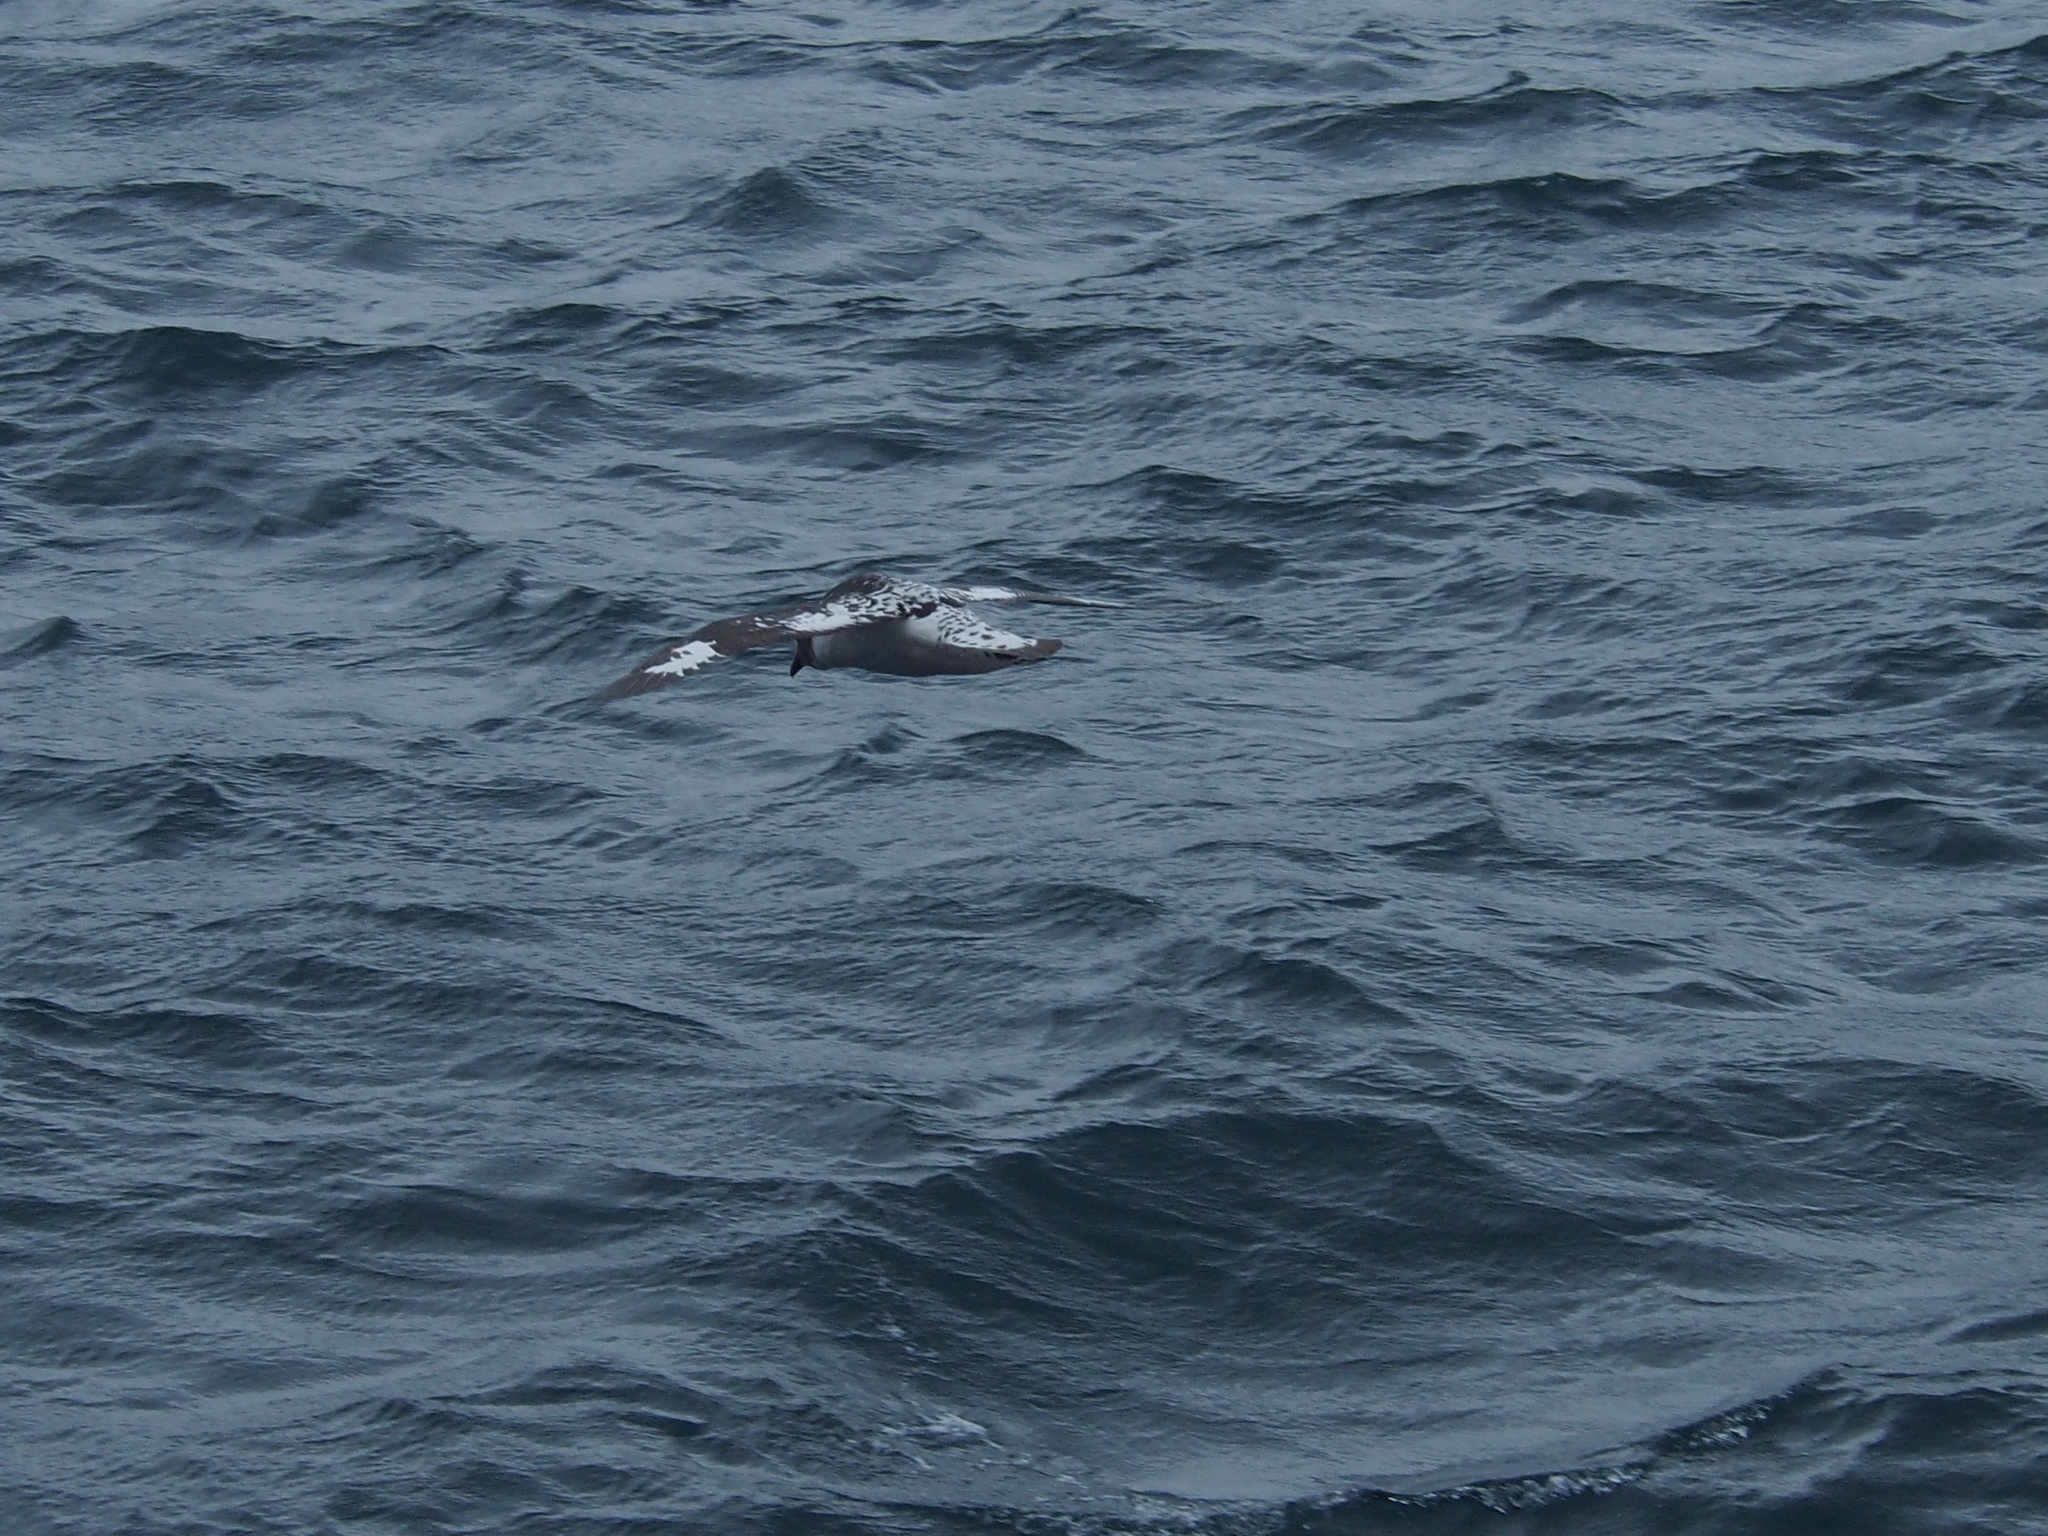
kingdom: Animalia
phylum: Chordata
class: Aves
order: Procellariiformes
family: Procellariidae
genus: Daption
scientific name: Daption capense
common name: Cape petrel
